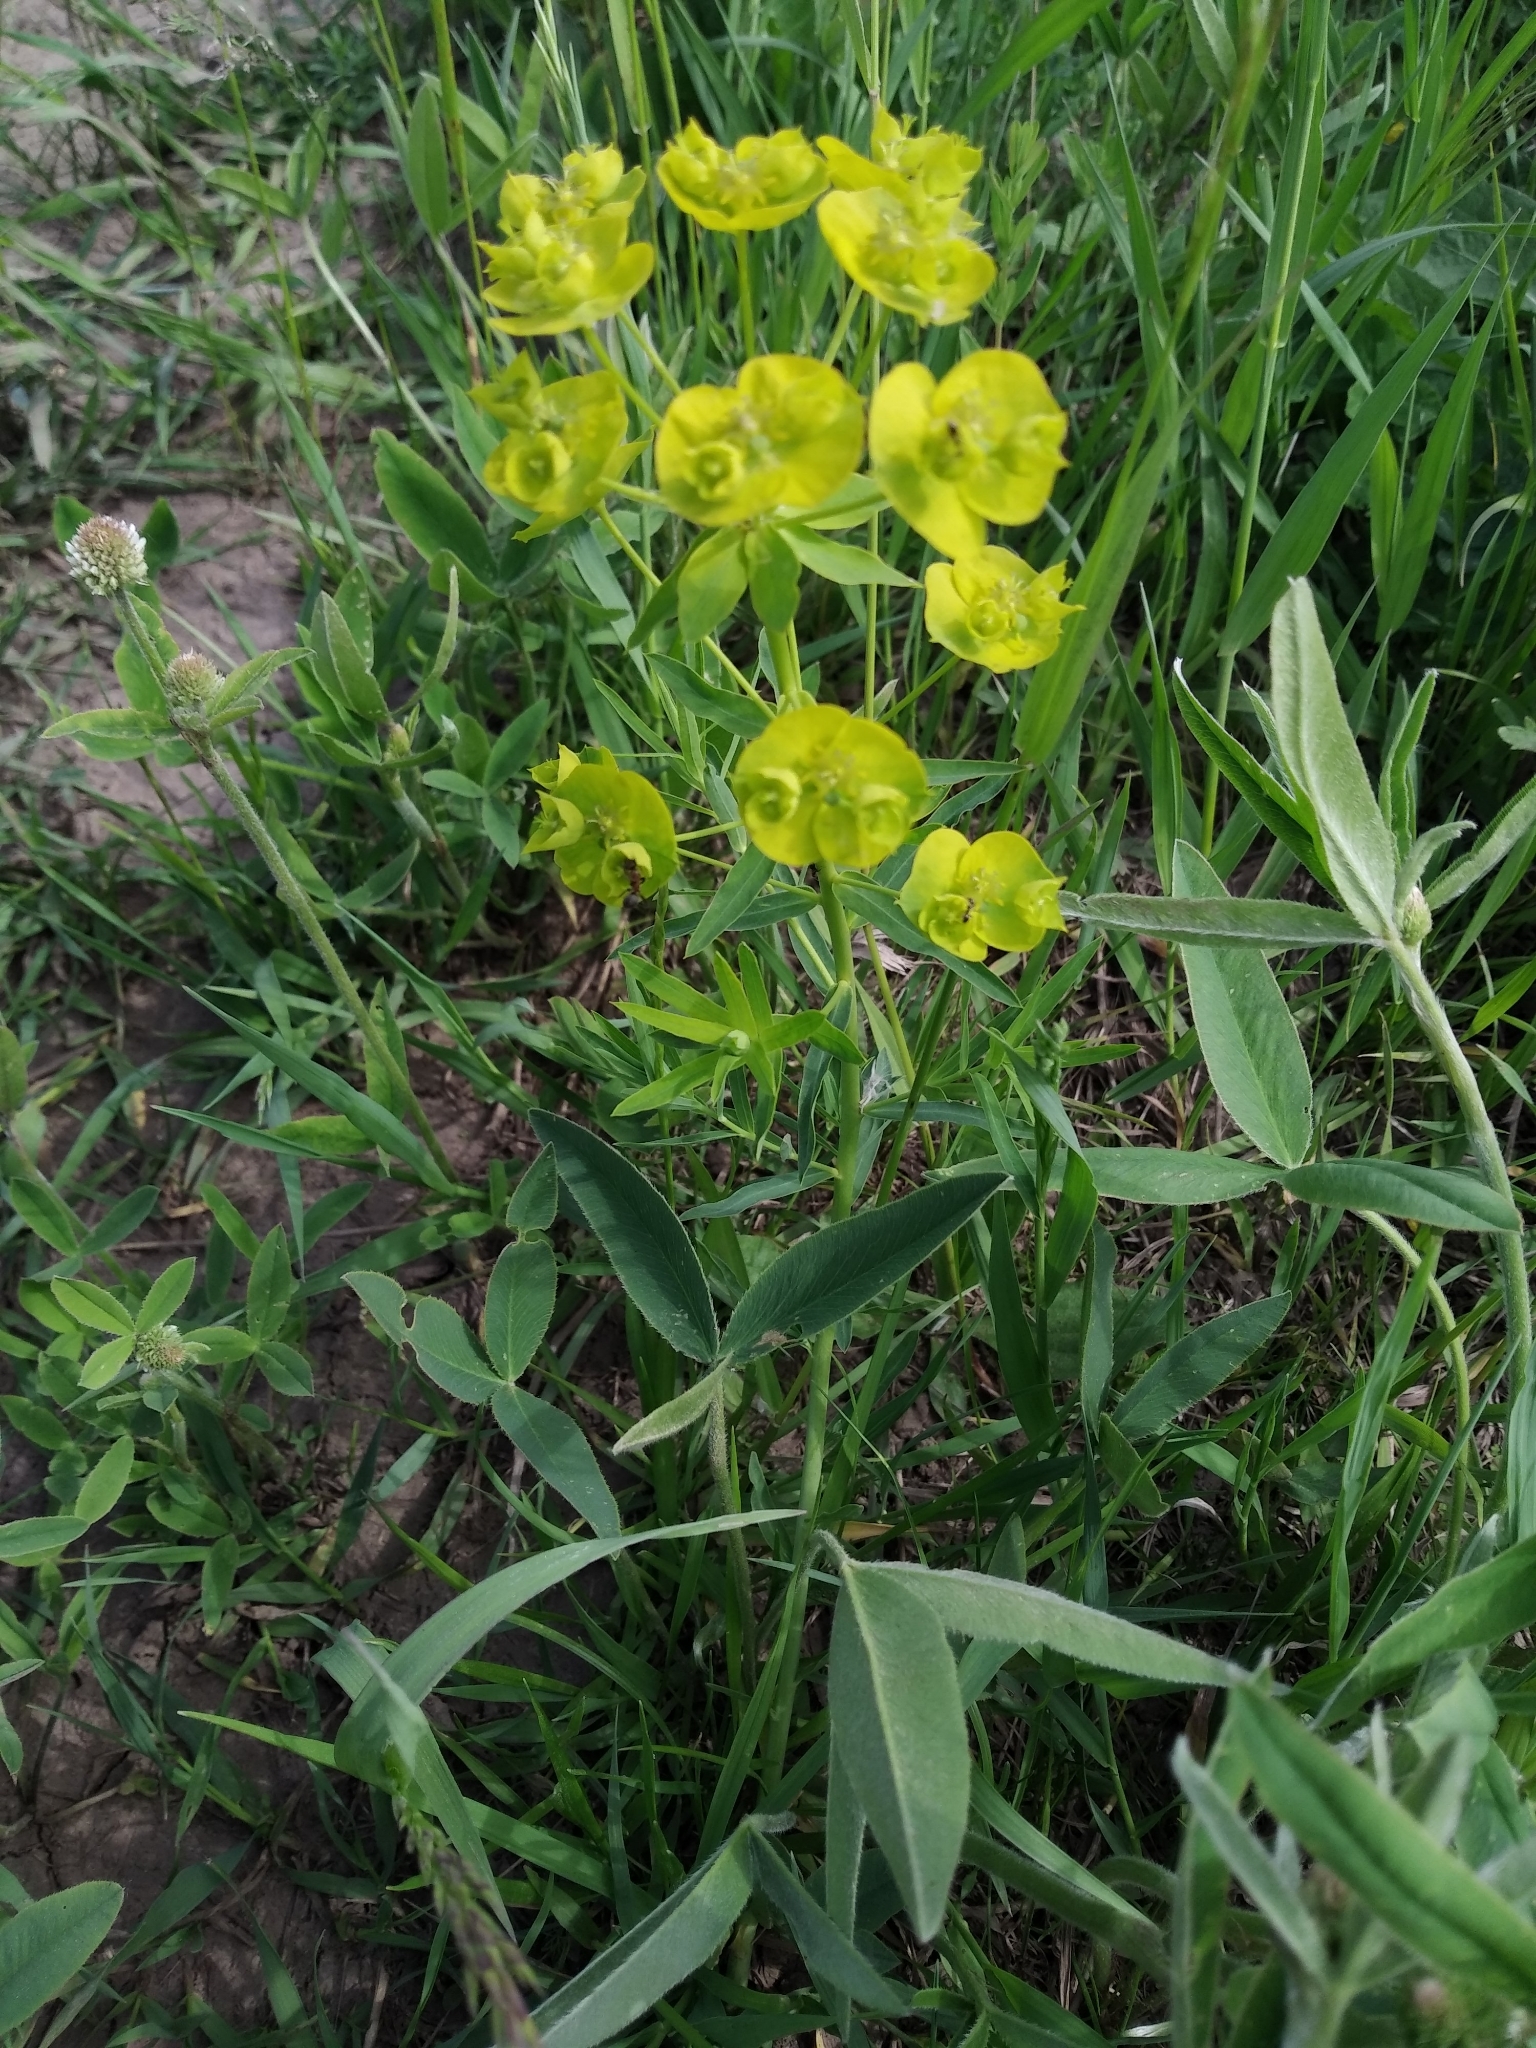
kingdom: Plantae
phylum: Tracheophyta
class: Magnoliopsida
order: Malpighiales
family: Euphorbiaceae
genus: Euphorbia
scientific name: Euphorbia virgata
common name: Leafy spurge
